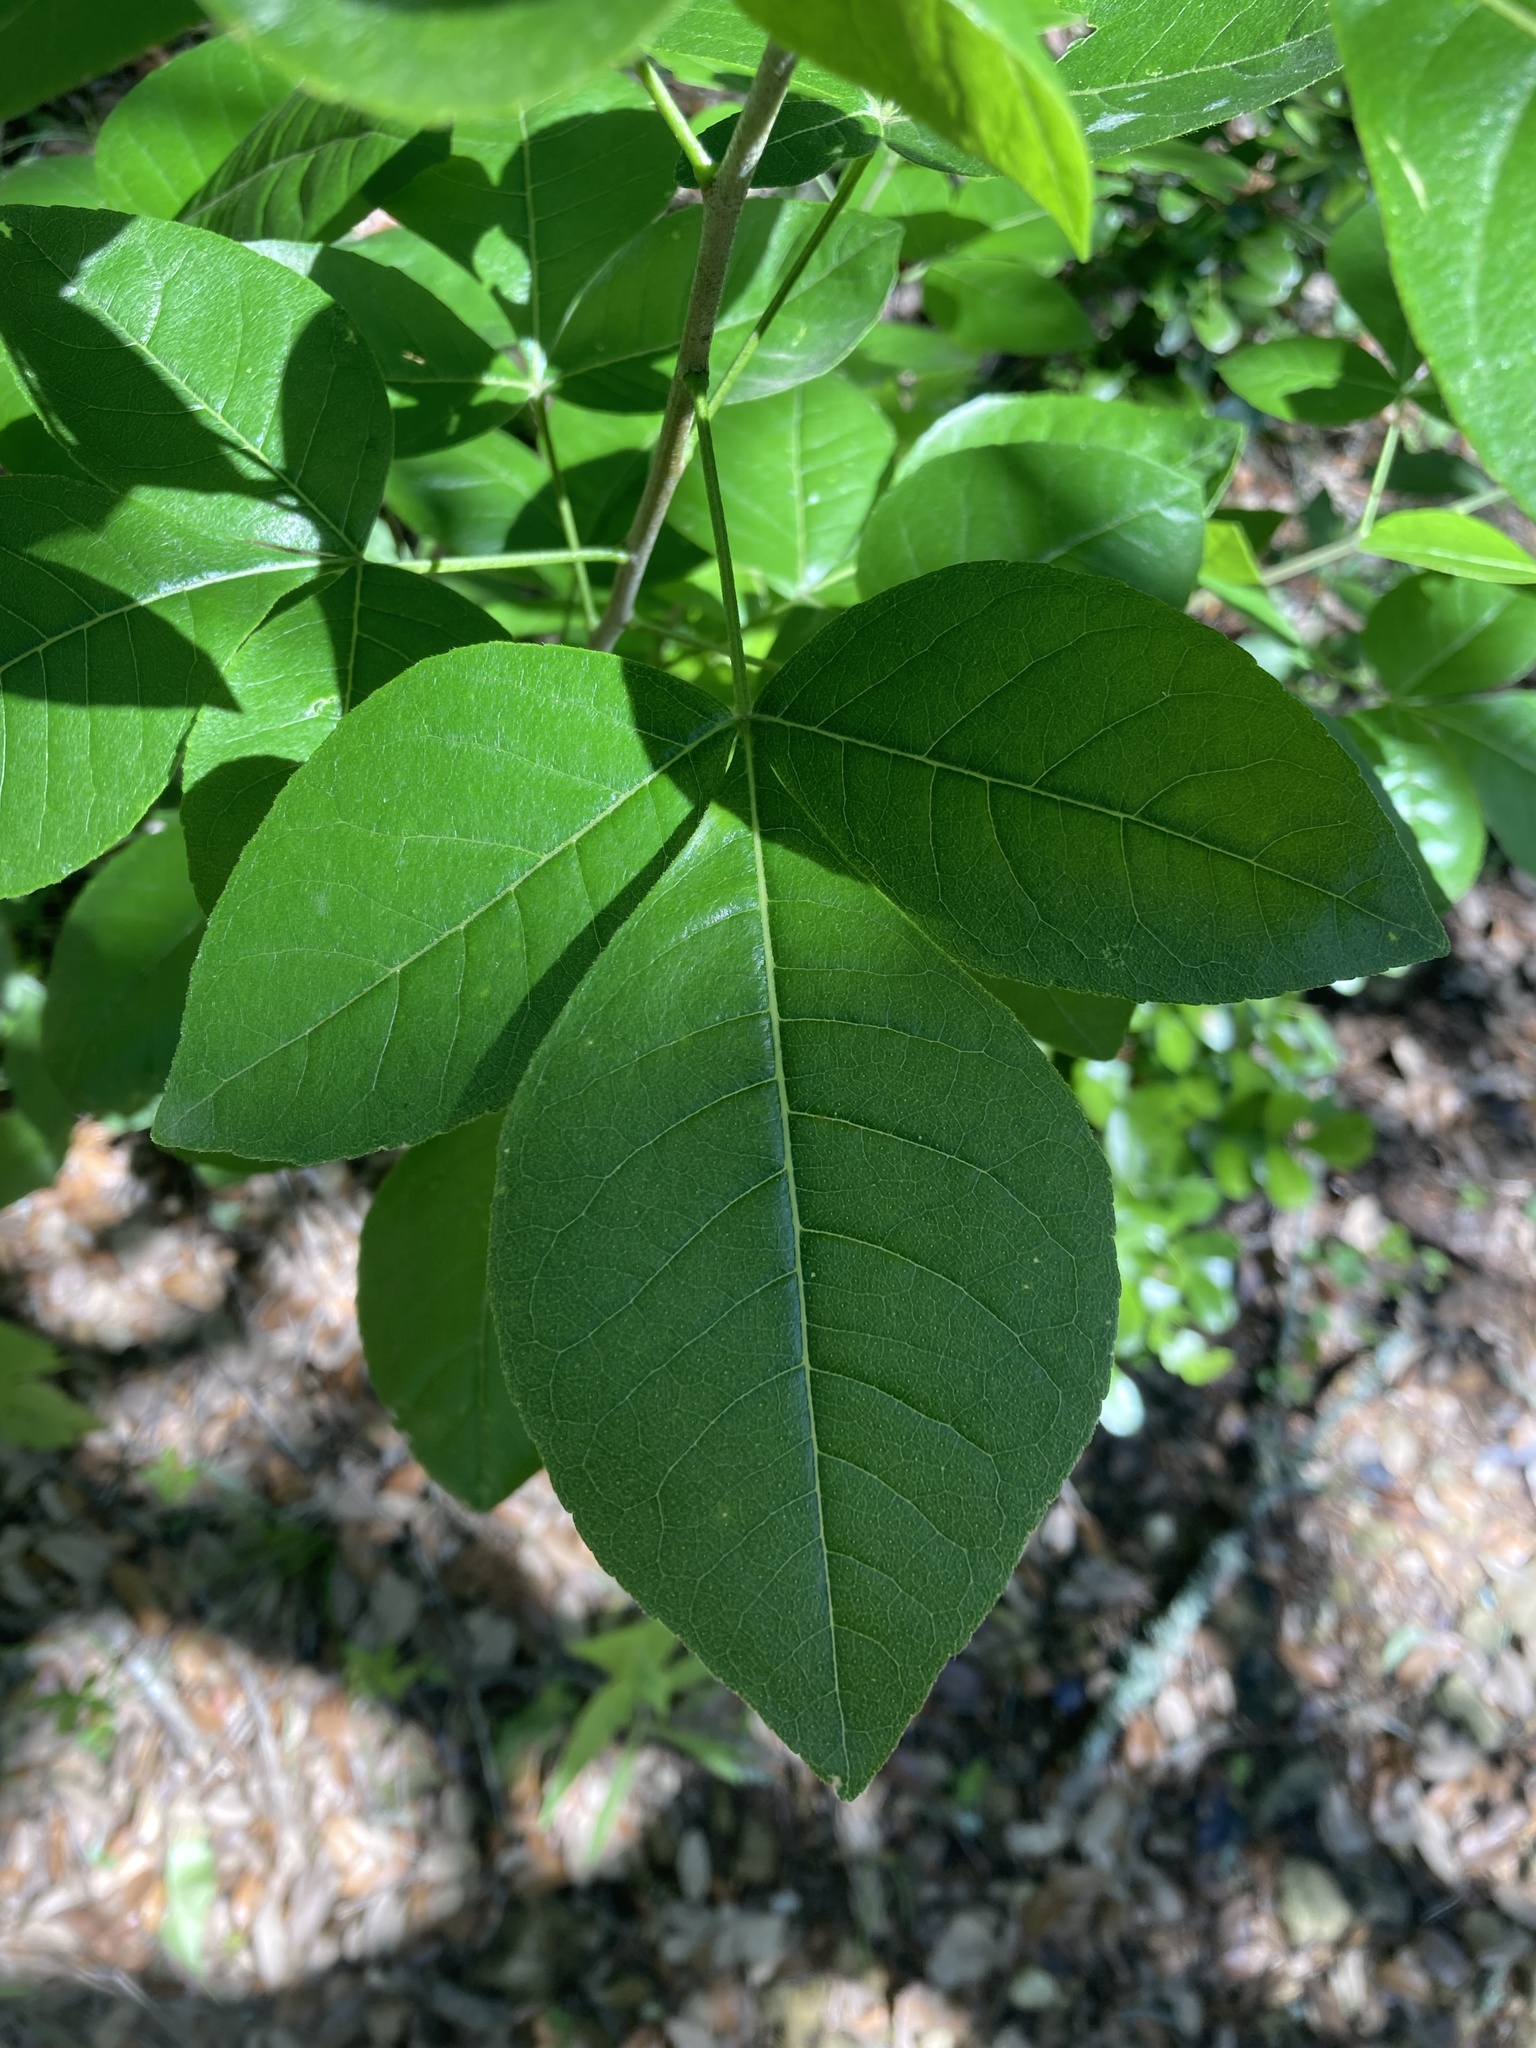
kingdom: Plantae
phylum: Tracheophyta
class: Magnoliopsida
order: Sapindales
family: Rutaceae
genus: Ptelea
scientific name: Ptelea trifoliata
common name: Common hop-tree
